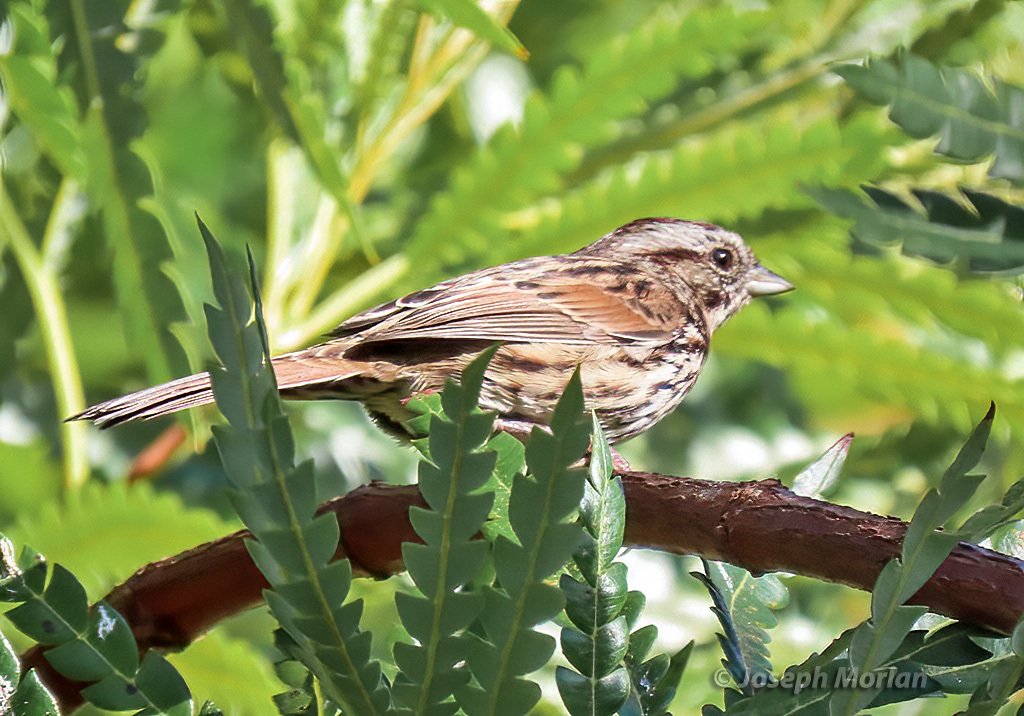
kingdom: Animalia
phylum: Chordata
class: Aves
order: Passeriformes
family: Passerellidae
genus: Melospiza
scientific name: Melospiza melodia
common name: Song sparrow
